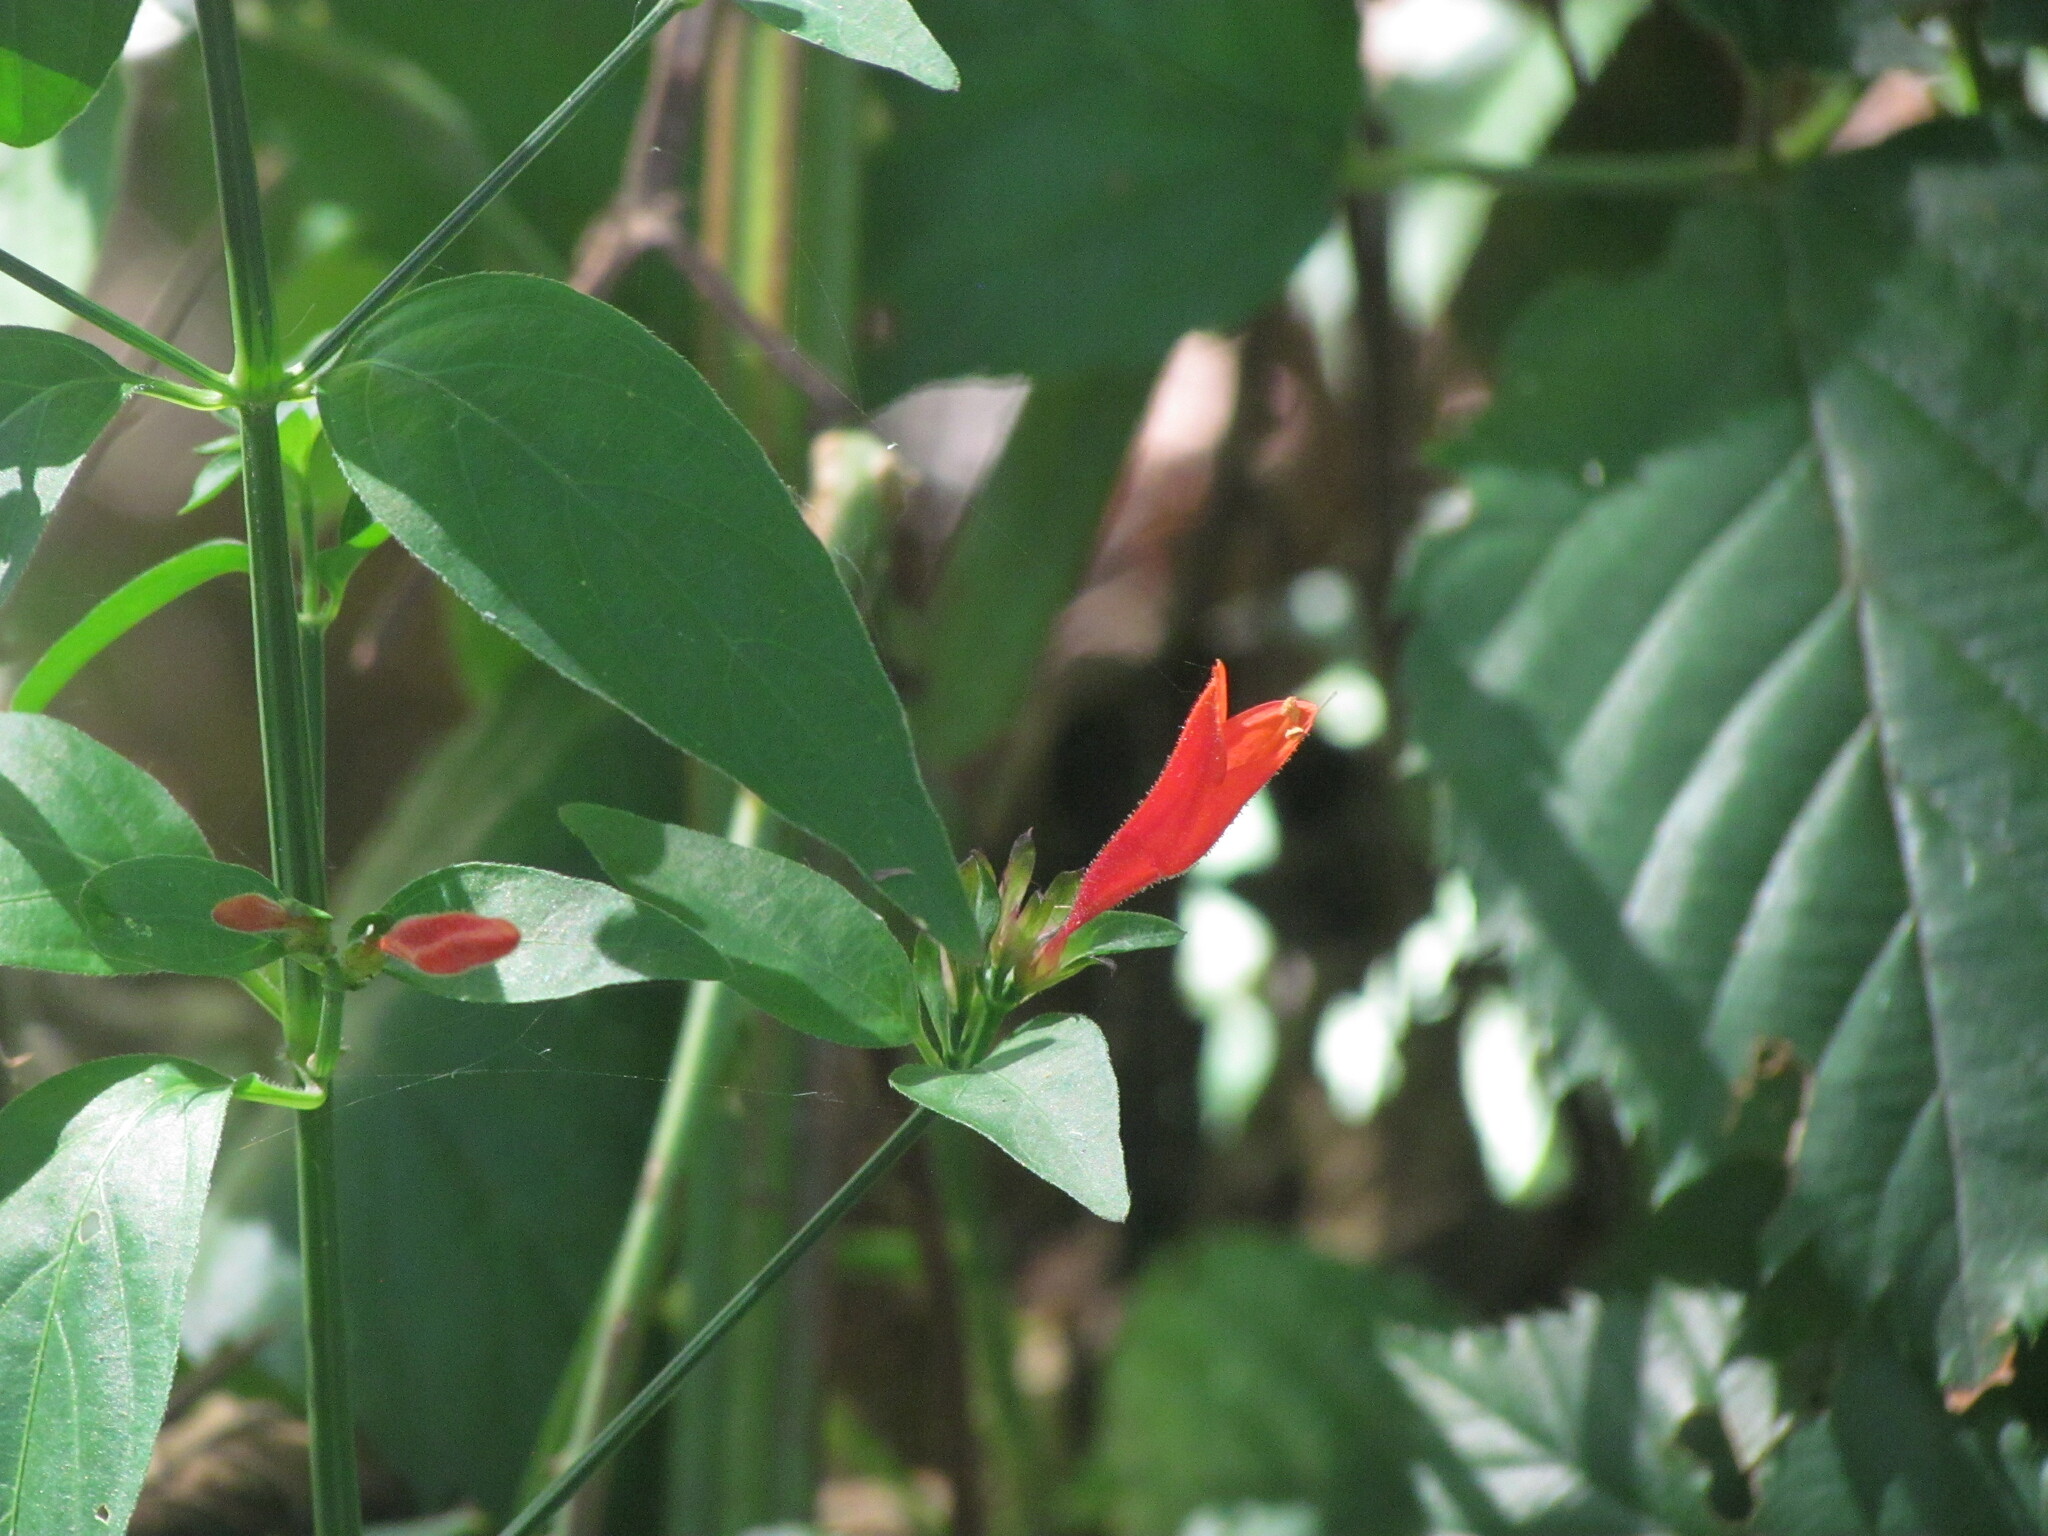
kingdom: Plantae
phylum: Tracheophyta
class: Magnoliopsida
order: Lamiales
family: Acanthaceae
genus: Dicliptera
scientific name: Dicliptera squarrosa
